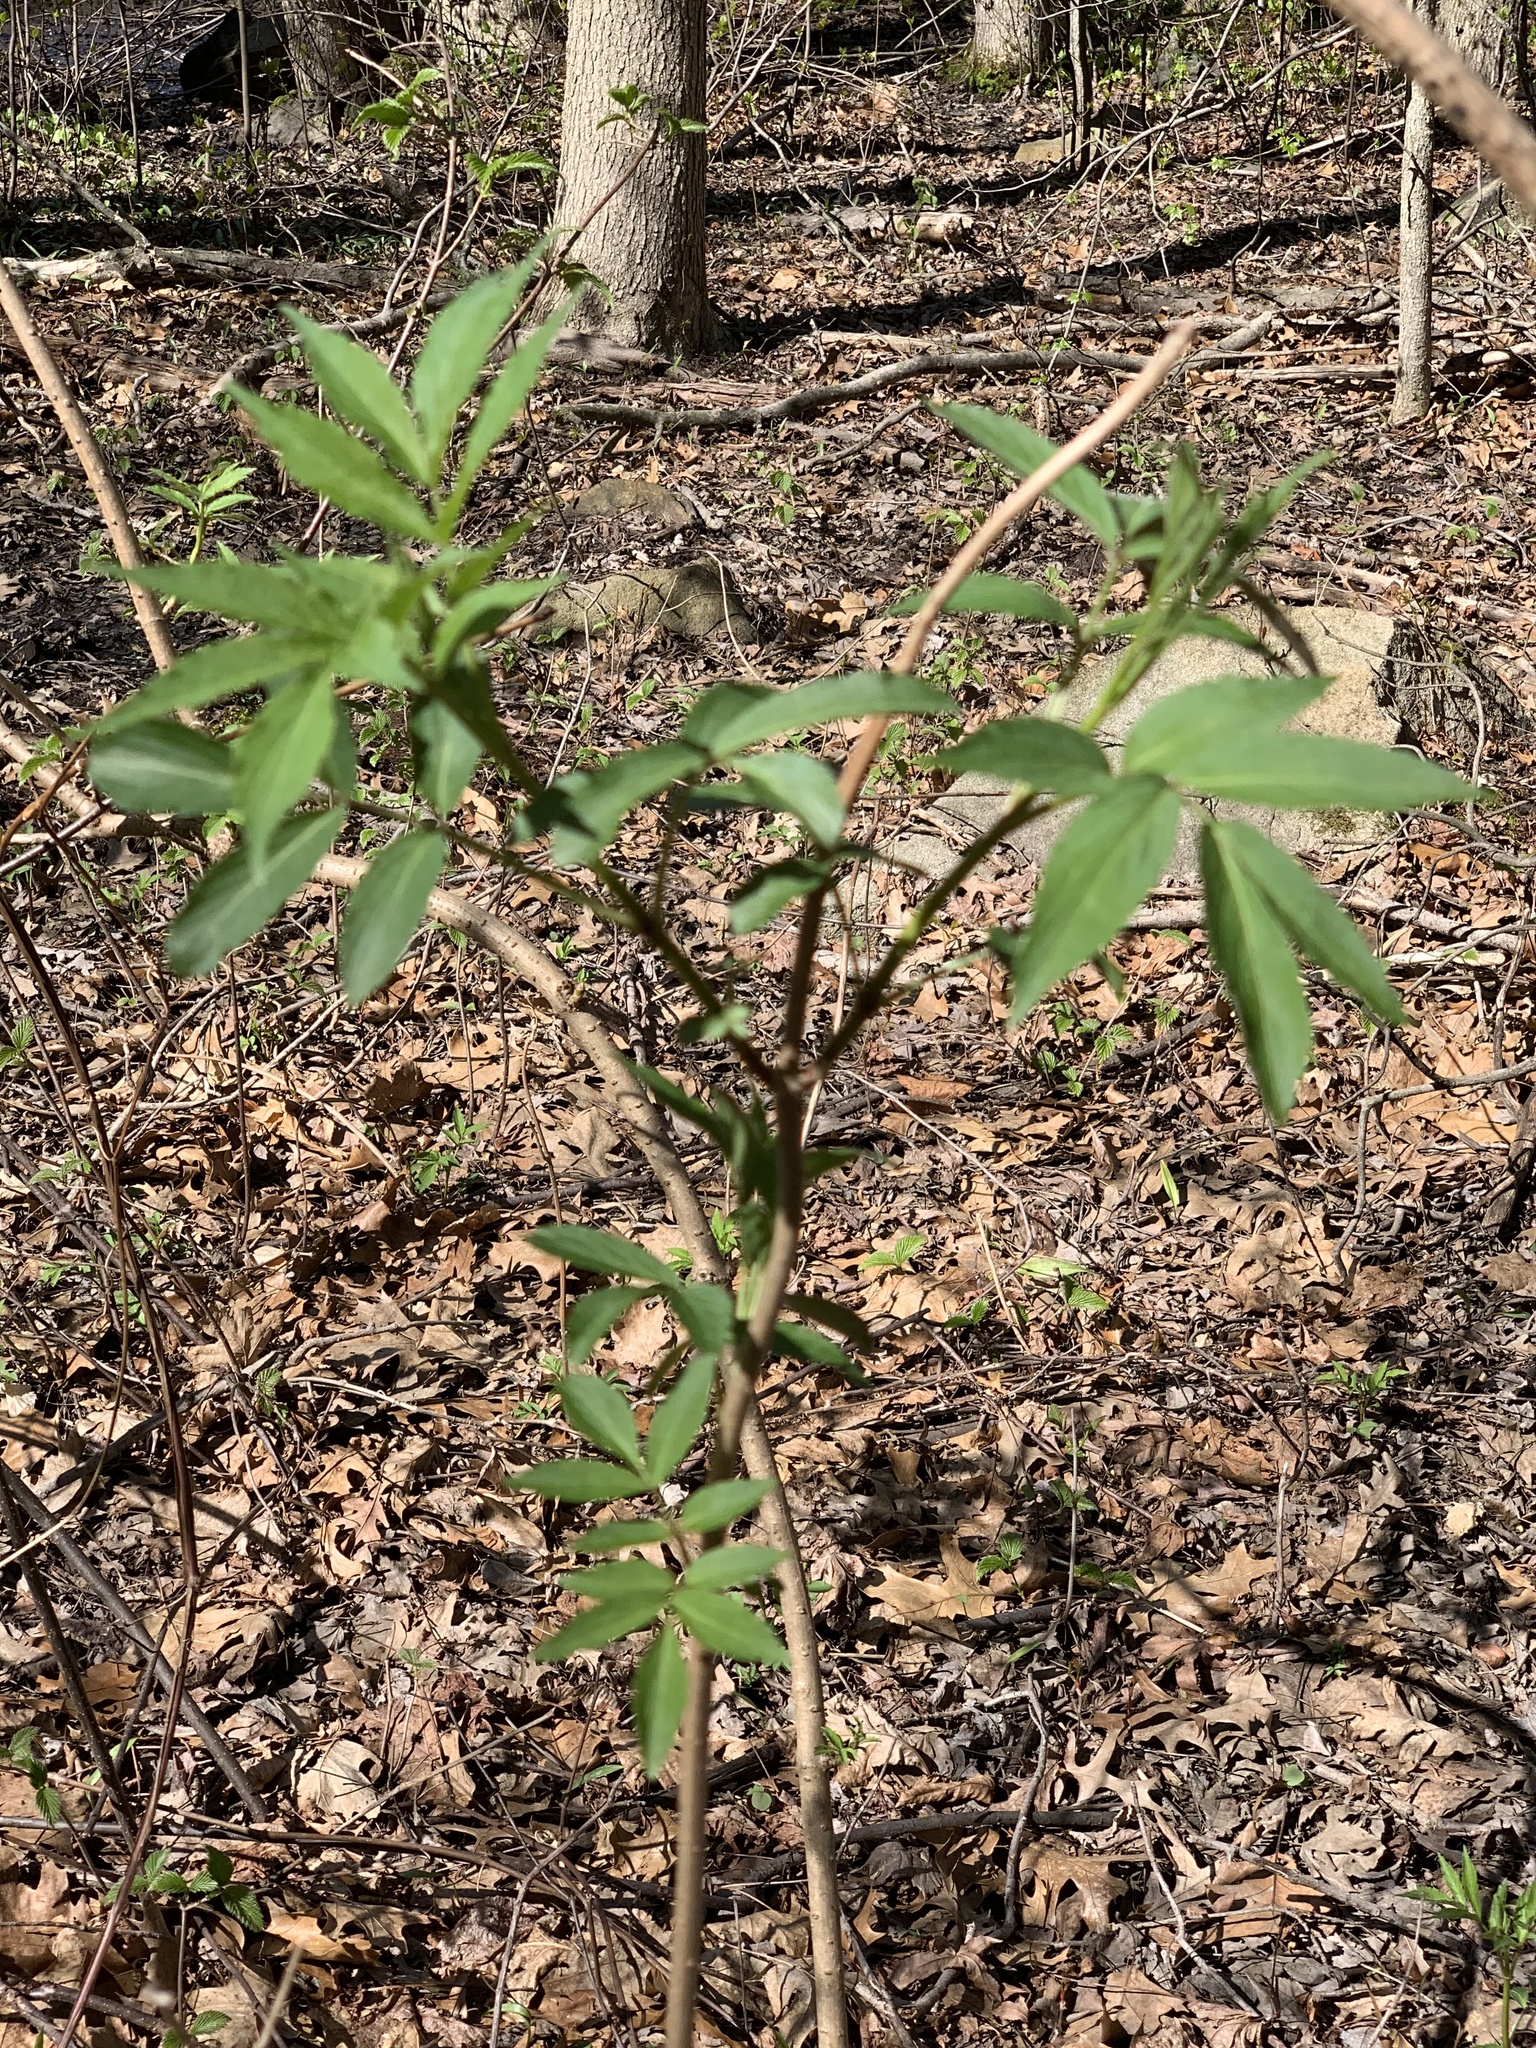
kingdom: Plantae
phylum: Tracheophyta
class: Magnoliopsida
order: Dipsacales
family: Viburnaceae
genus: Sambucus
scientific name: Sambucus
